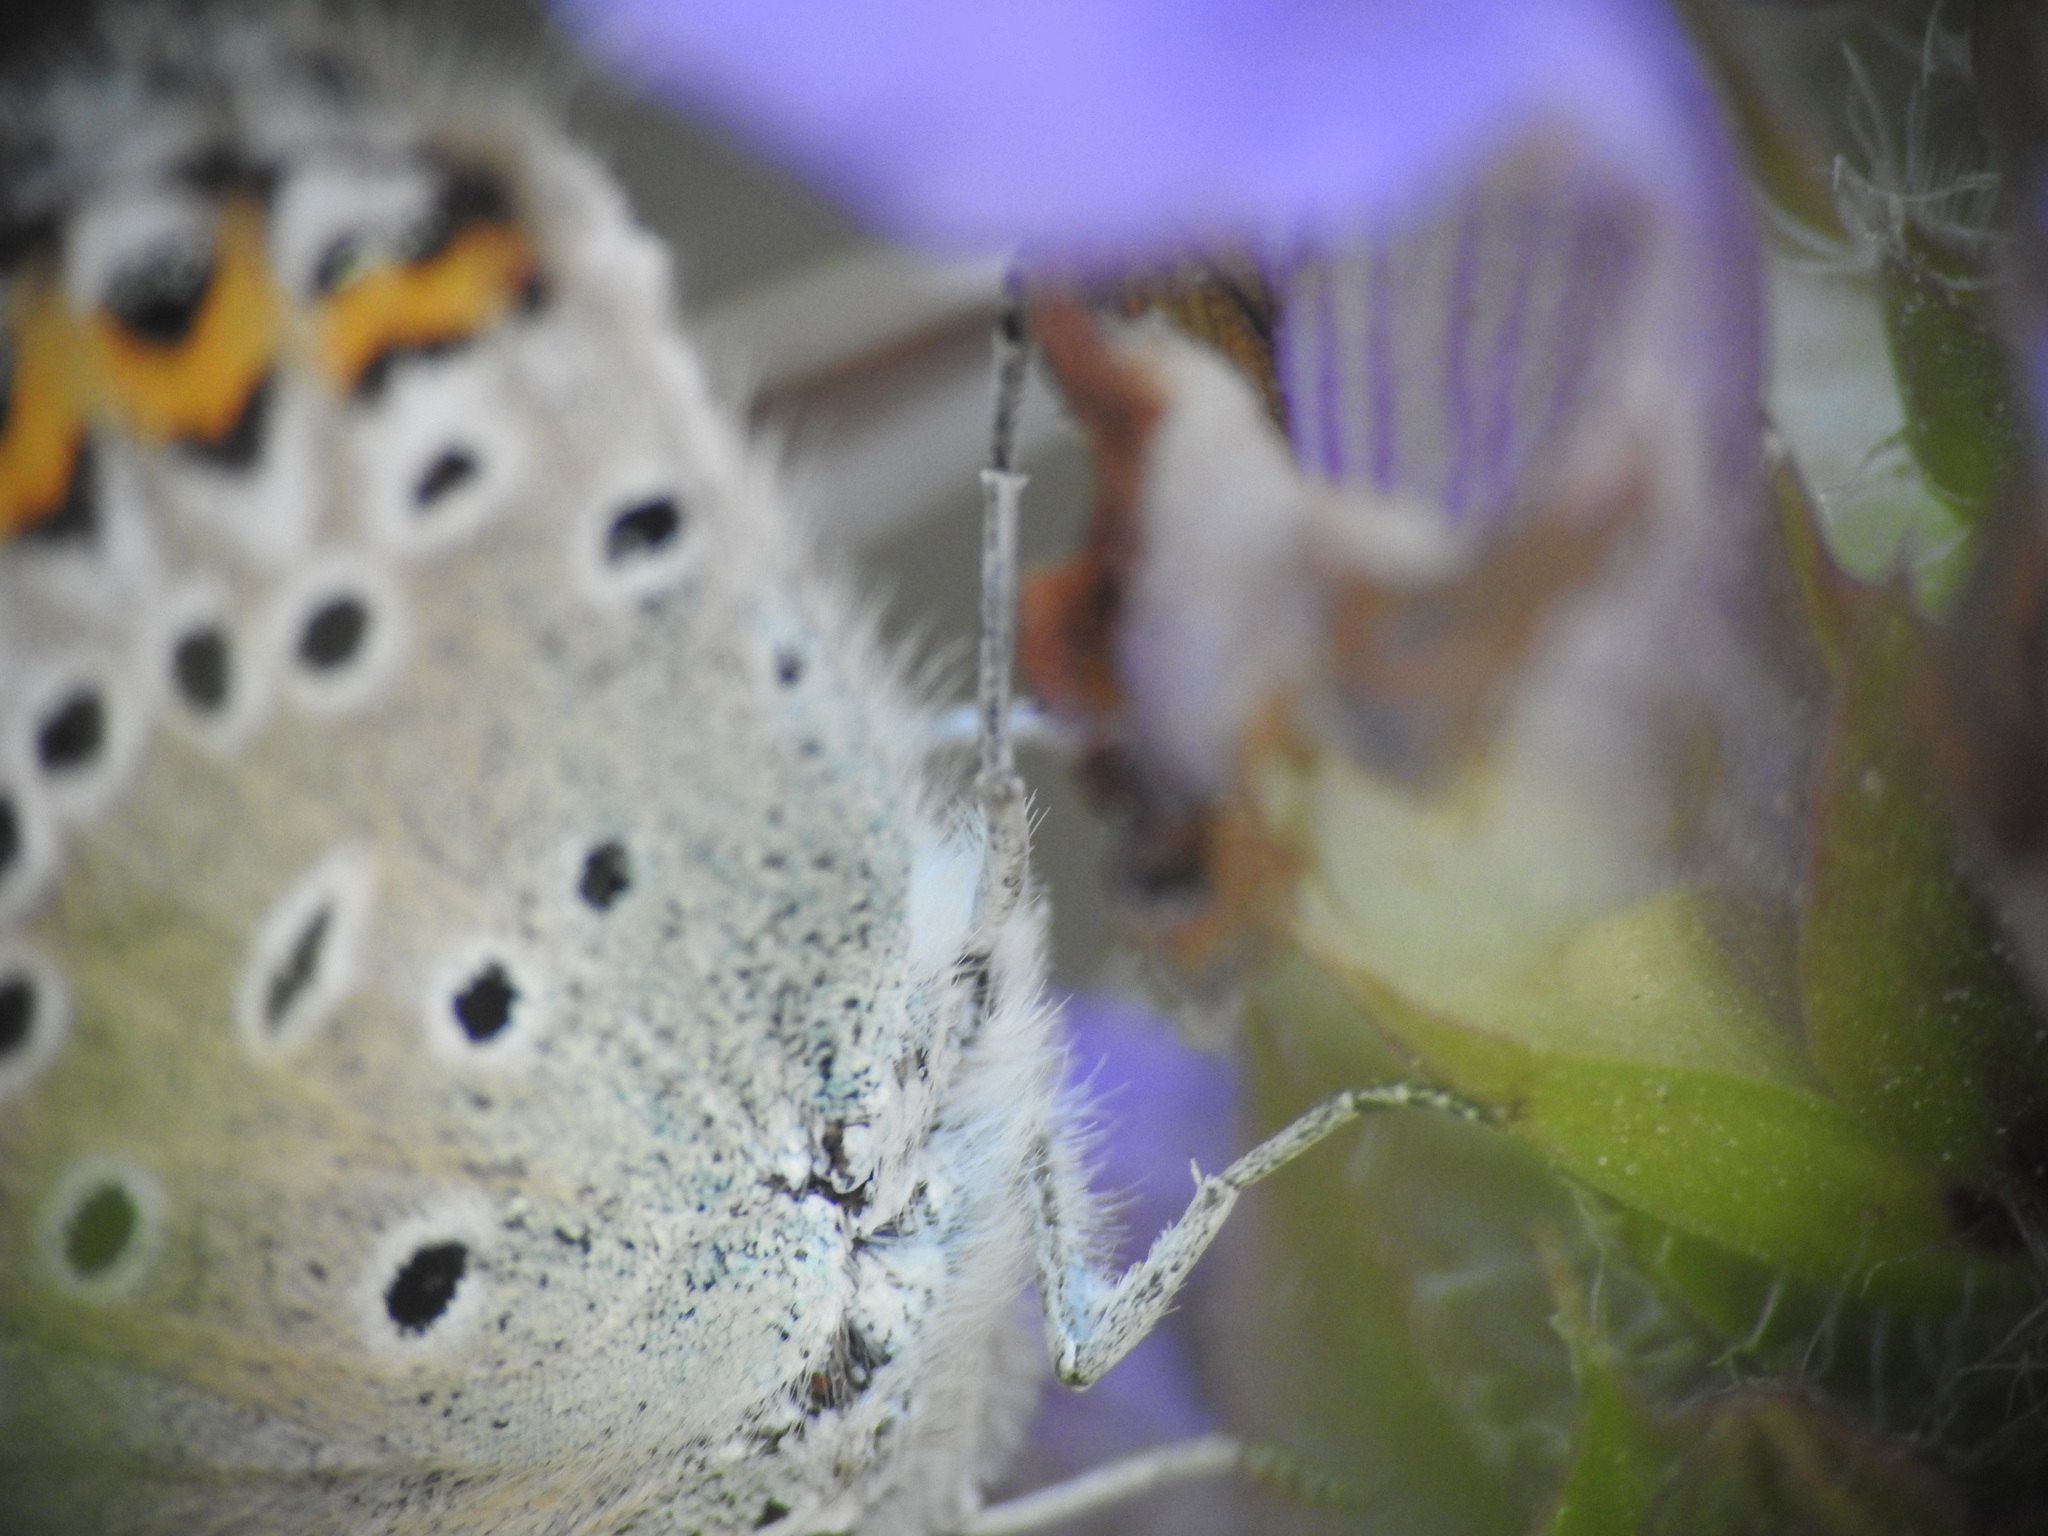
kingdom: Animalia
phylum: Arthropoda
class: Insecta
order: Lepidoptera
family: Lycaenidae
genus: Lycaeides
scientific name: Lycaeides idas
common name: Northern blue
